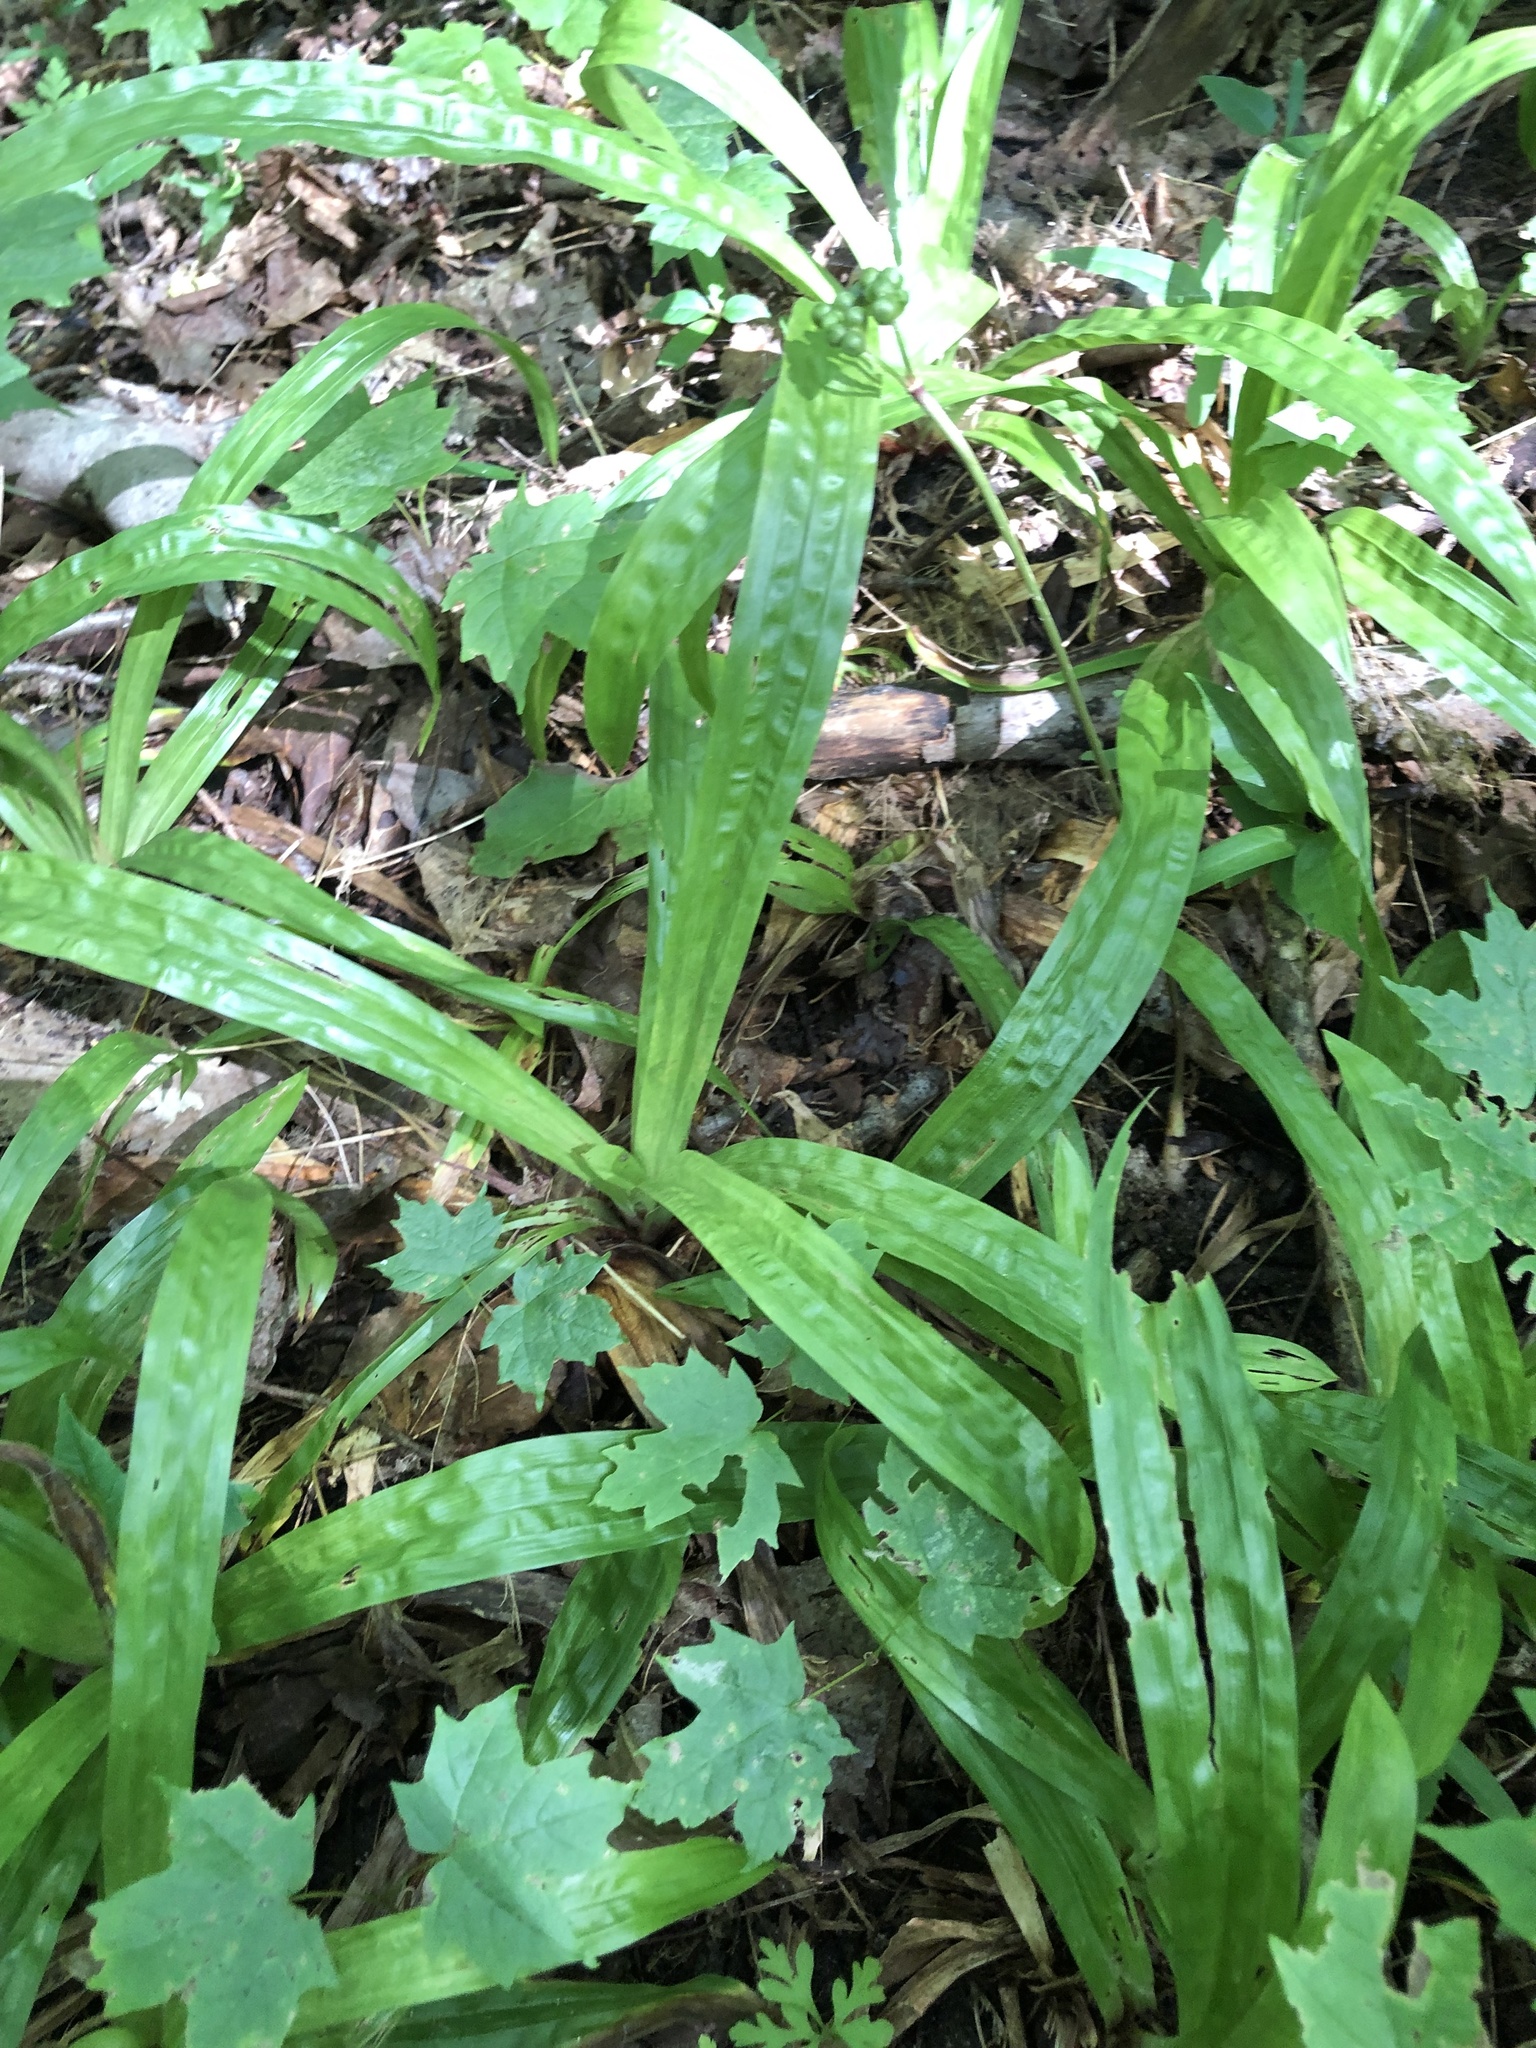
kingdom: Plantae
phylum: Tracheophyta
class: Liliopsida
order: Poales
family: Cyperaceae
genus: Carex
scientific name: Carex plantaginea
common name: Plantain-leaved sedge
